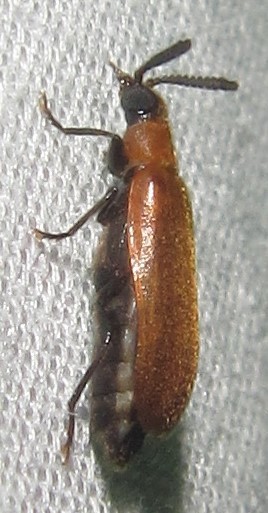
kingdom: Animalia
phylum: Arthropoda
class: Insecta
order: Coleoptera
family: Mycteridae
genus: Physciolagria
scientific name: Physciolagria singularicornis
